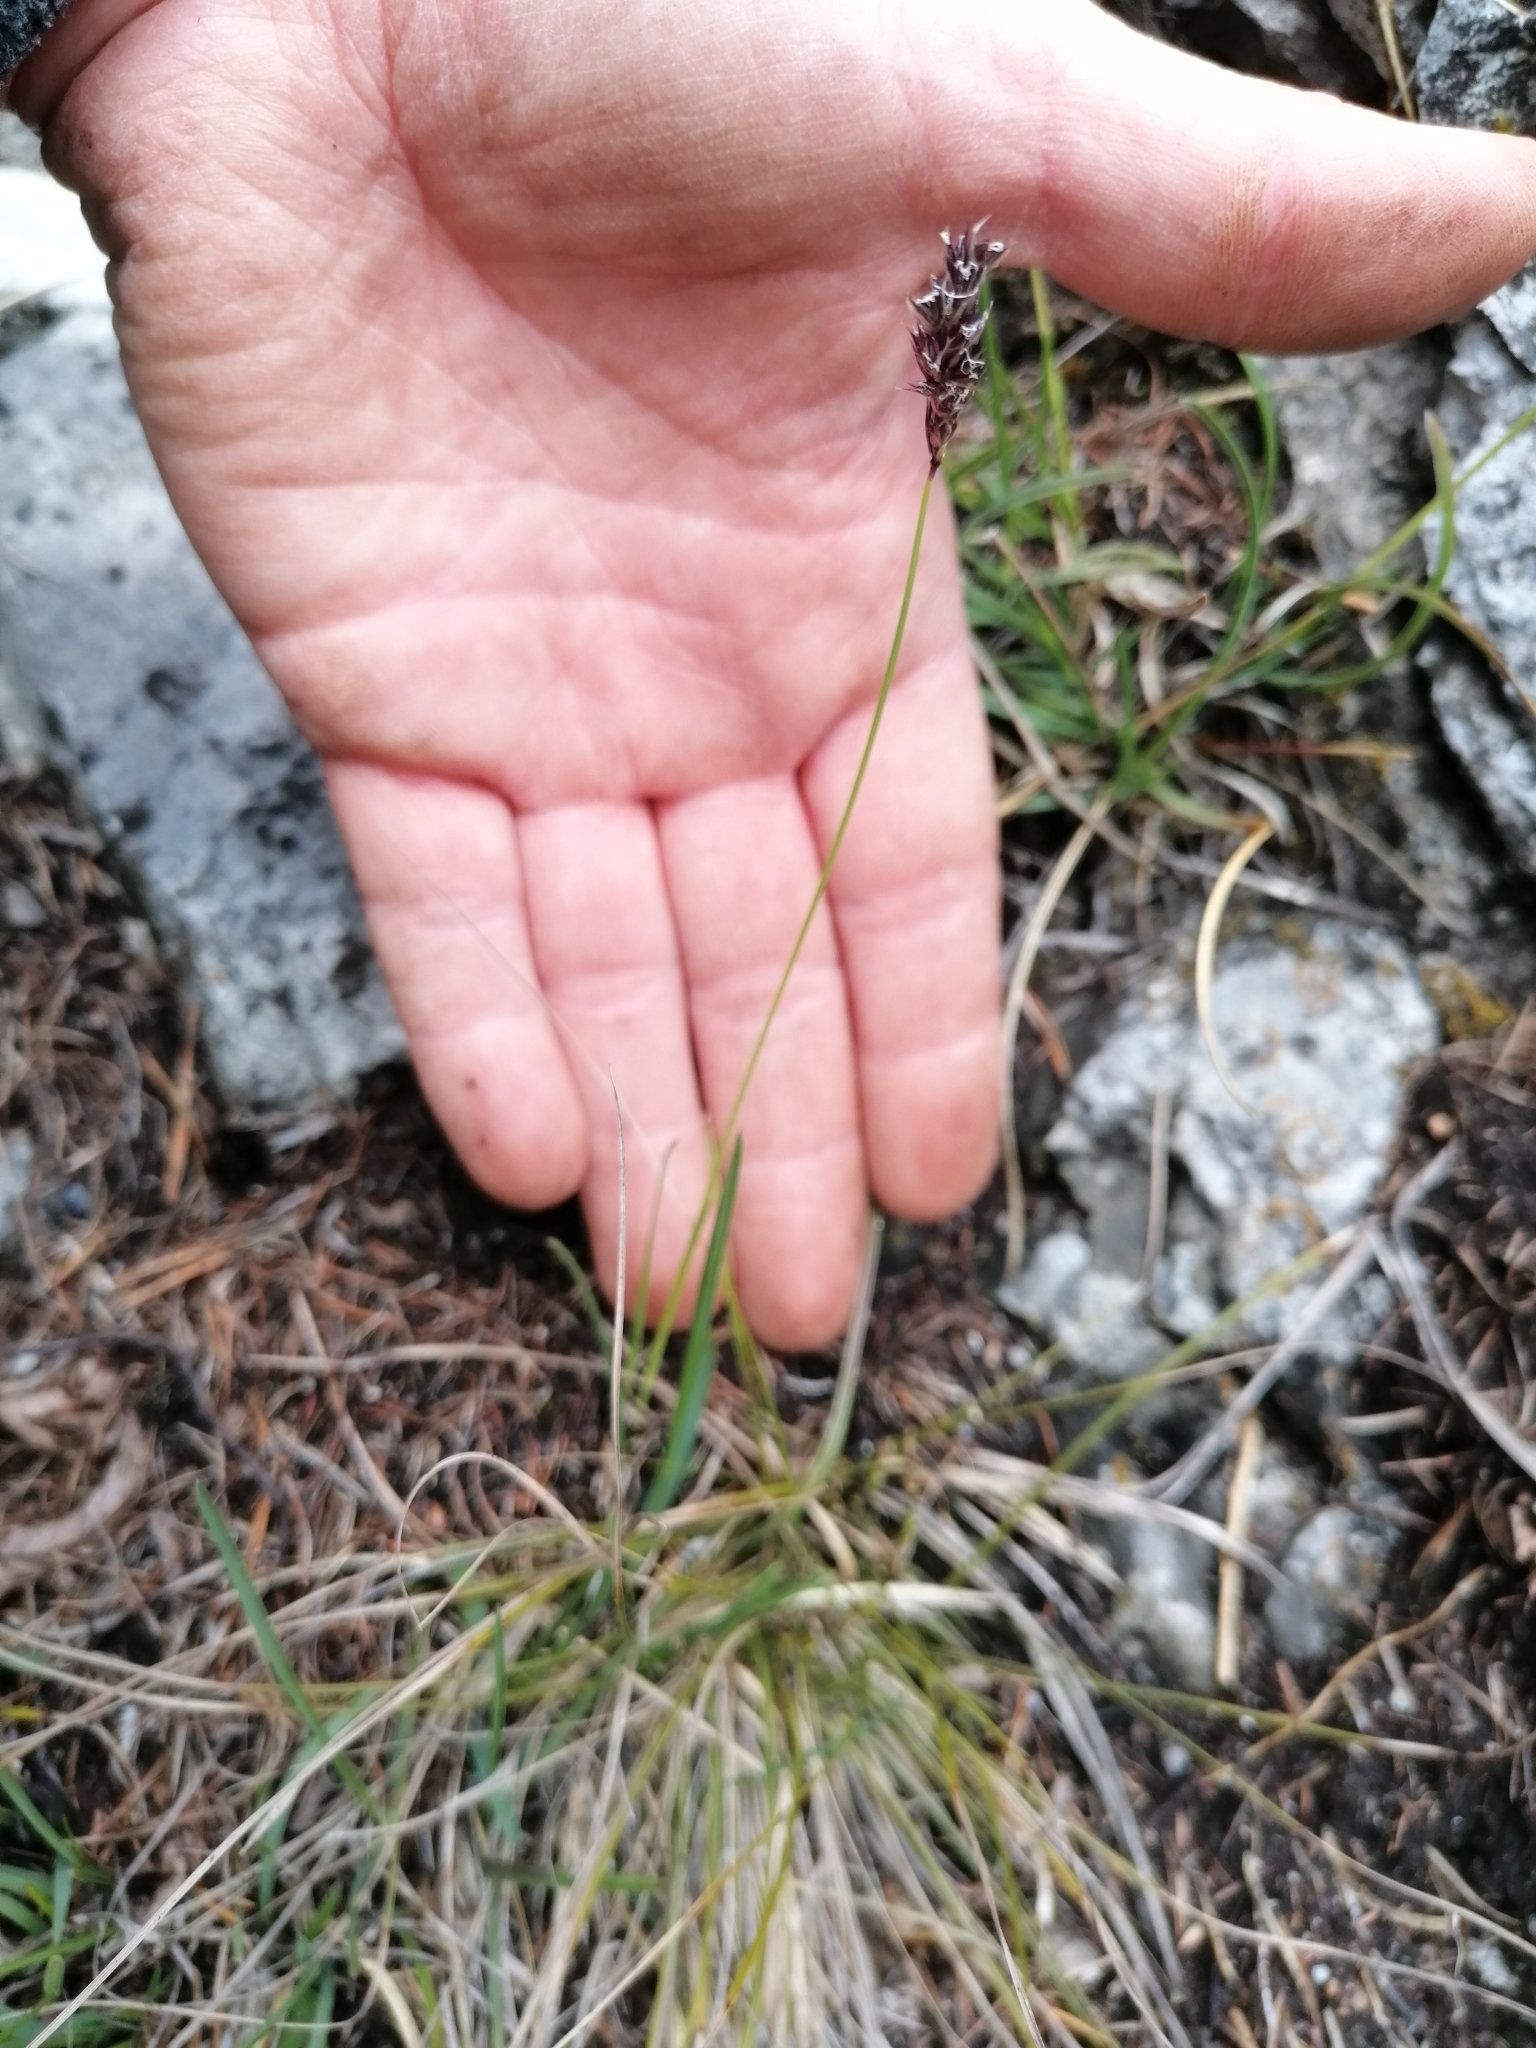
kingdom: Plantae
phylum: Tracheophyta
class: Liliopsida
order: Poales
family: Poaceae
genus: Sesleria
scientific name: Sesleria caerulea
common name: Blue moor-grass
